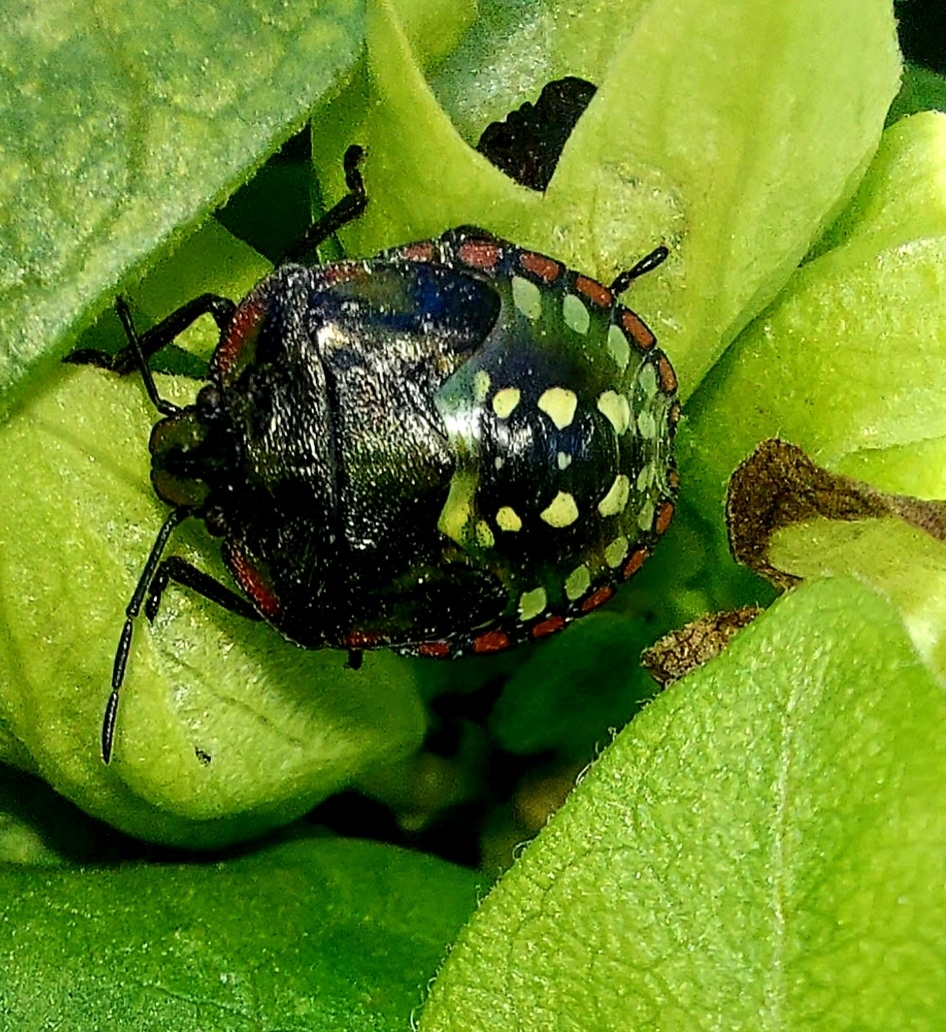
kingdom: Animalia
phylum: Arthropoda
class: Insecta
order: Hemiptera
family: Pentatomidae
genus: Nezara
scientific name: Nezara viridula
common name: Southern green stink bug
